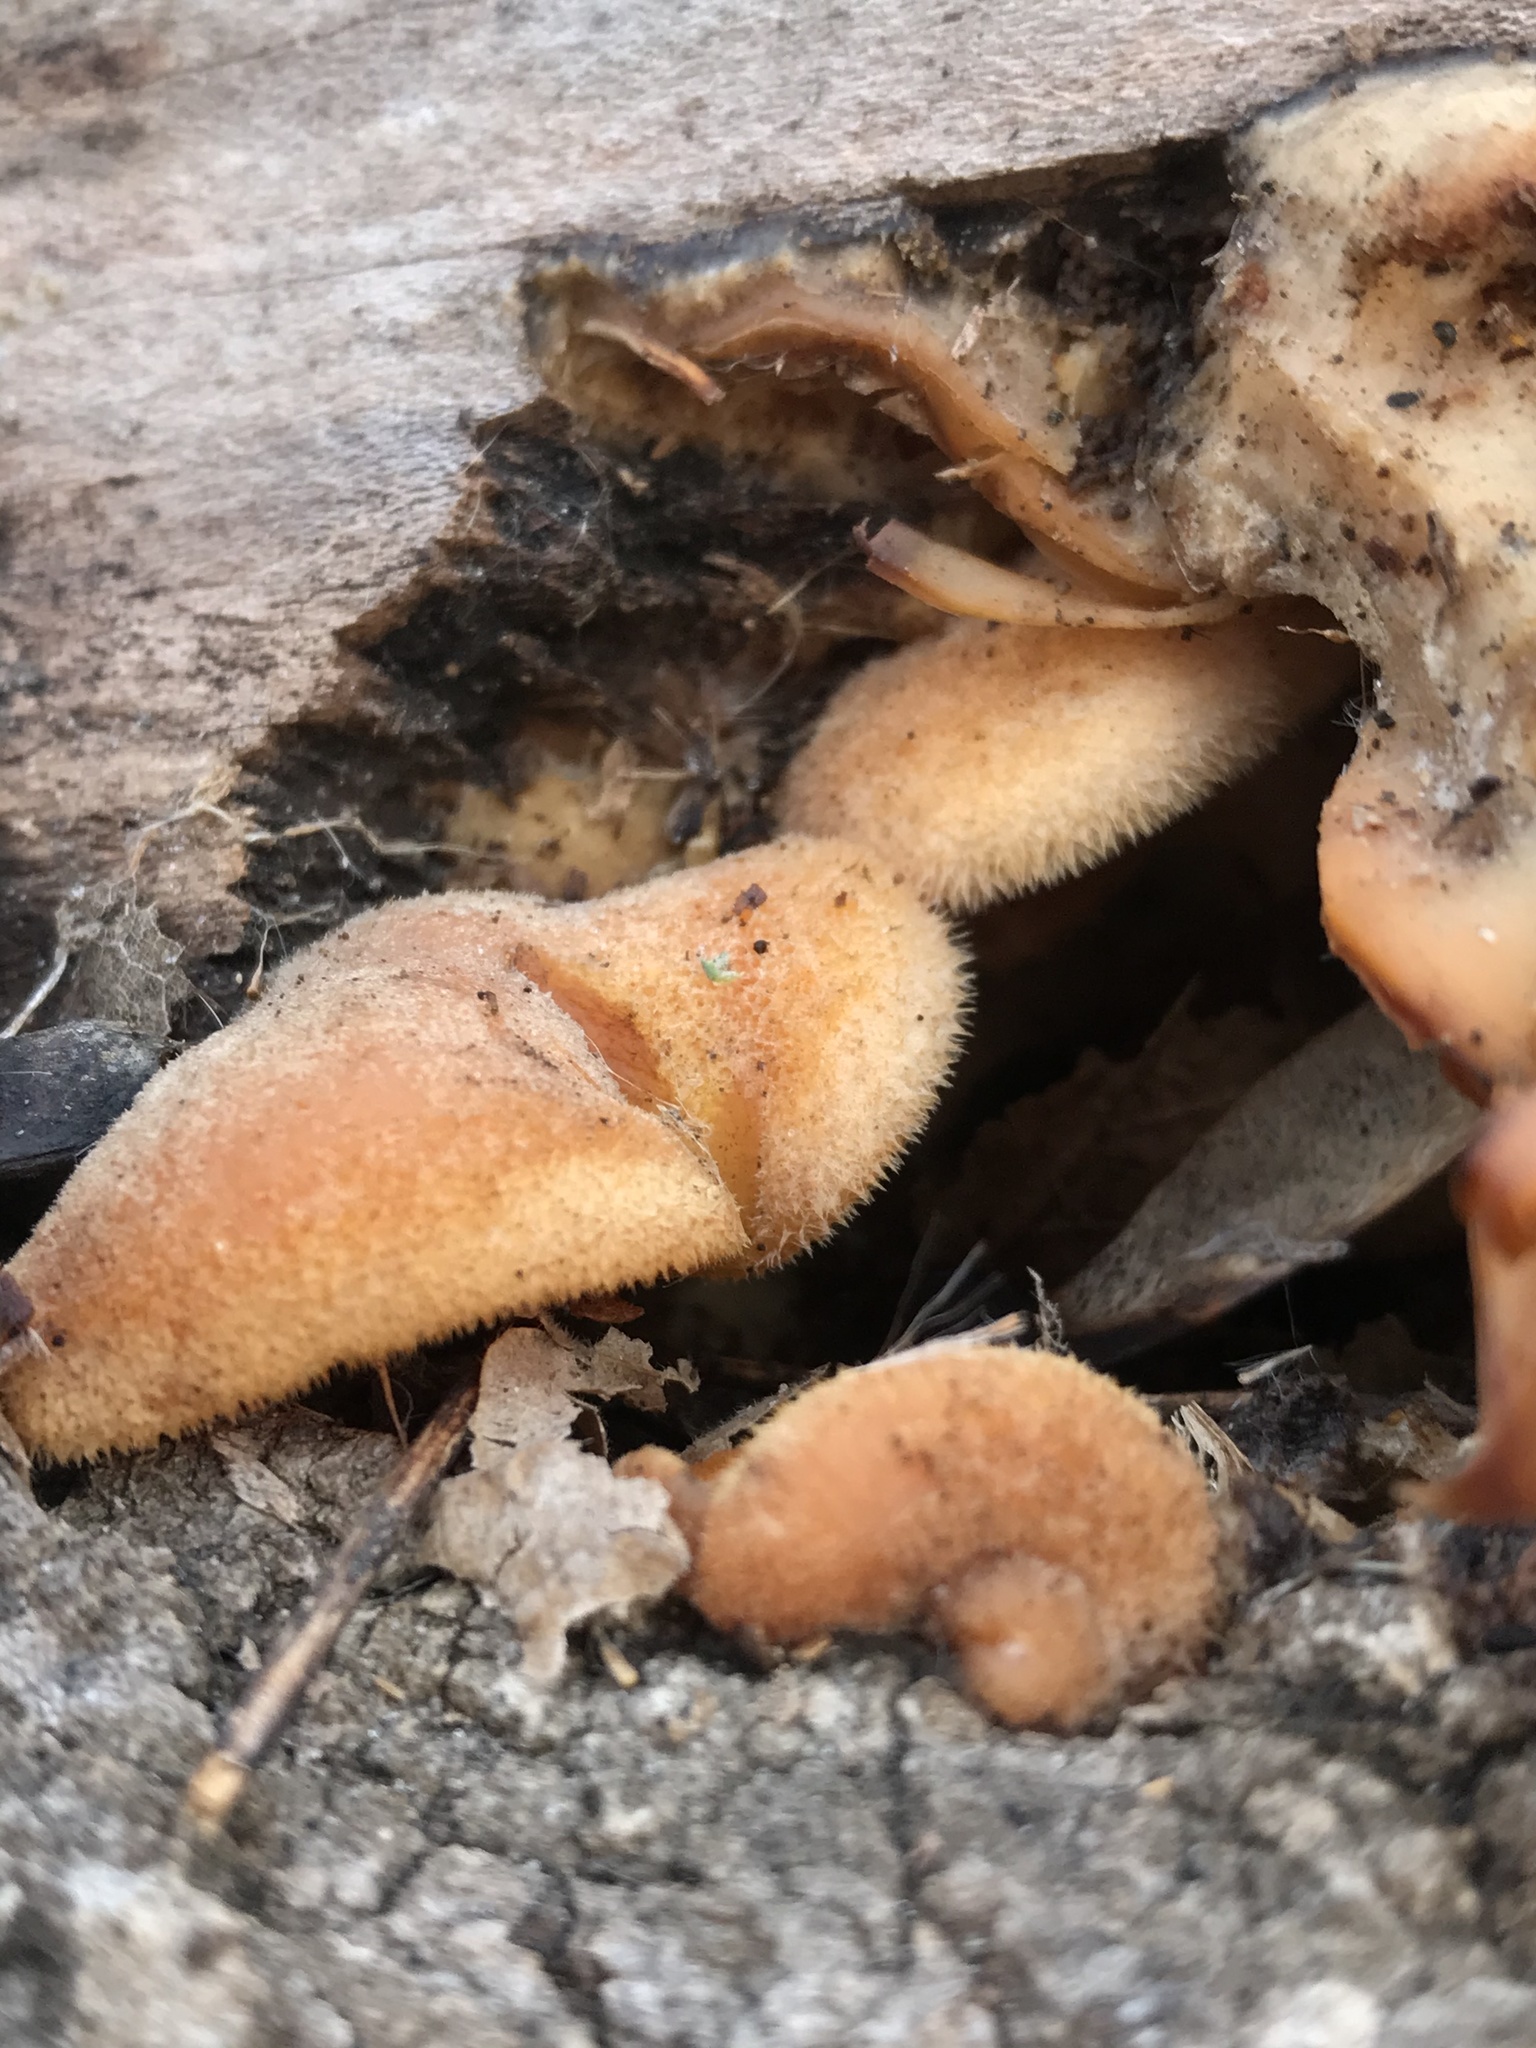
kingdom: Fungi
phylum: Basidiomycota
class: Agaricomycetes
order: Agaricales
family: Phyllotopsidaceae
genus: Phyllotopsis
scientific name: Phyllotopsis nidulans
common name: Orange mock oyster
